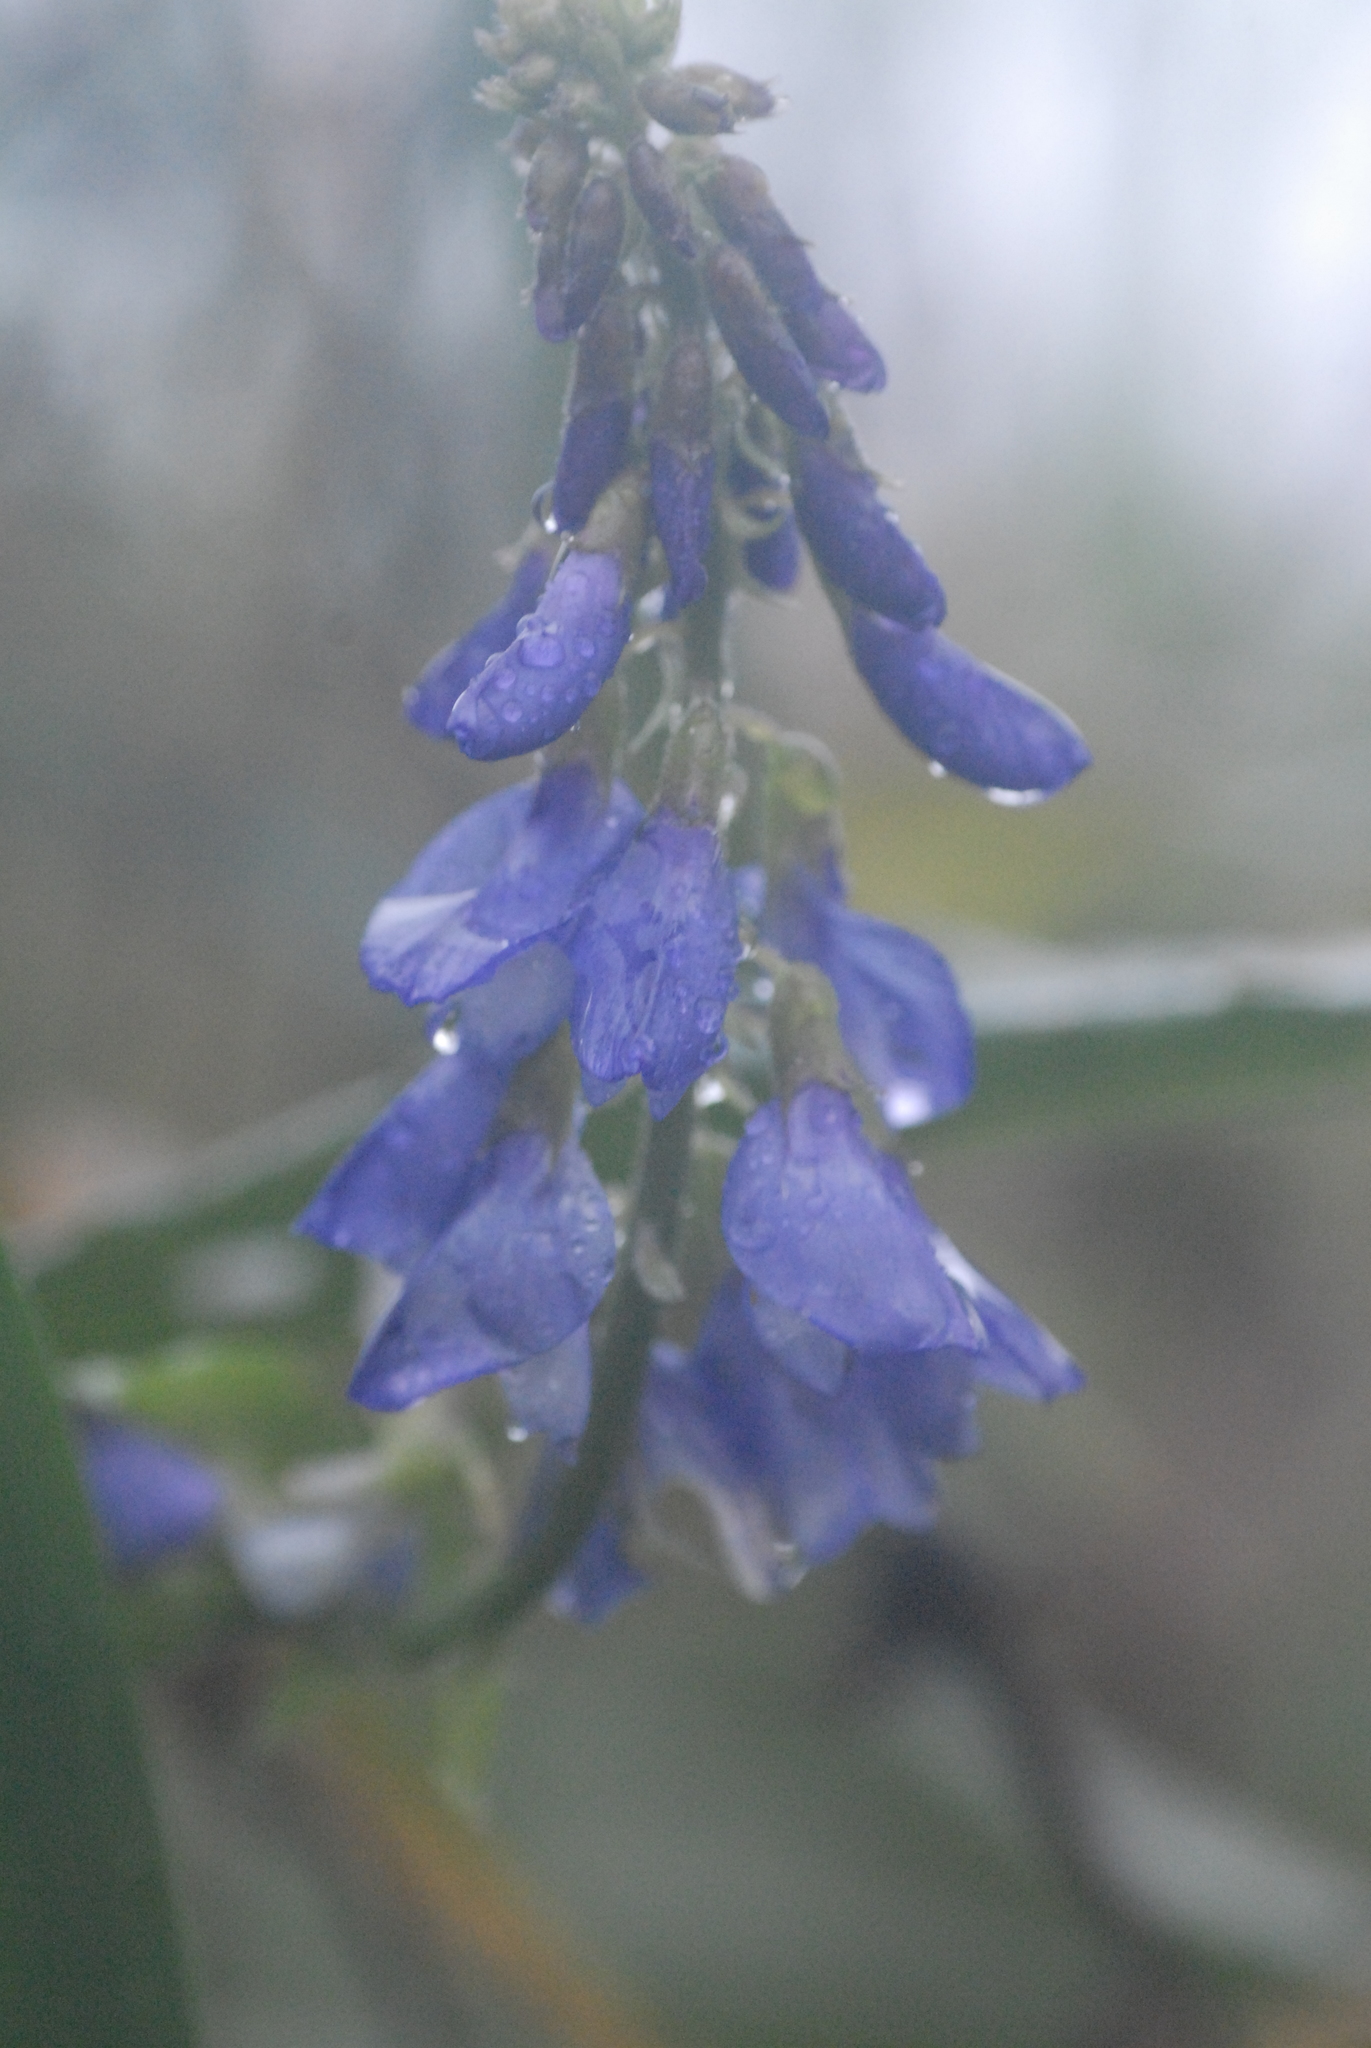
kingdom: Plantae
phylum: Tracheophyta
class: Magnoliopsida
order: Fabales
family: Fabaceae
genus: Galega
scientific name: Galega orientalis
